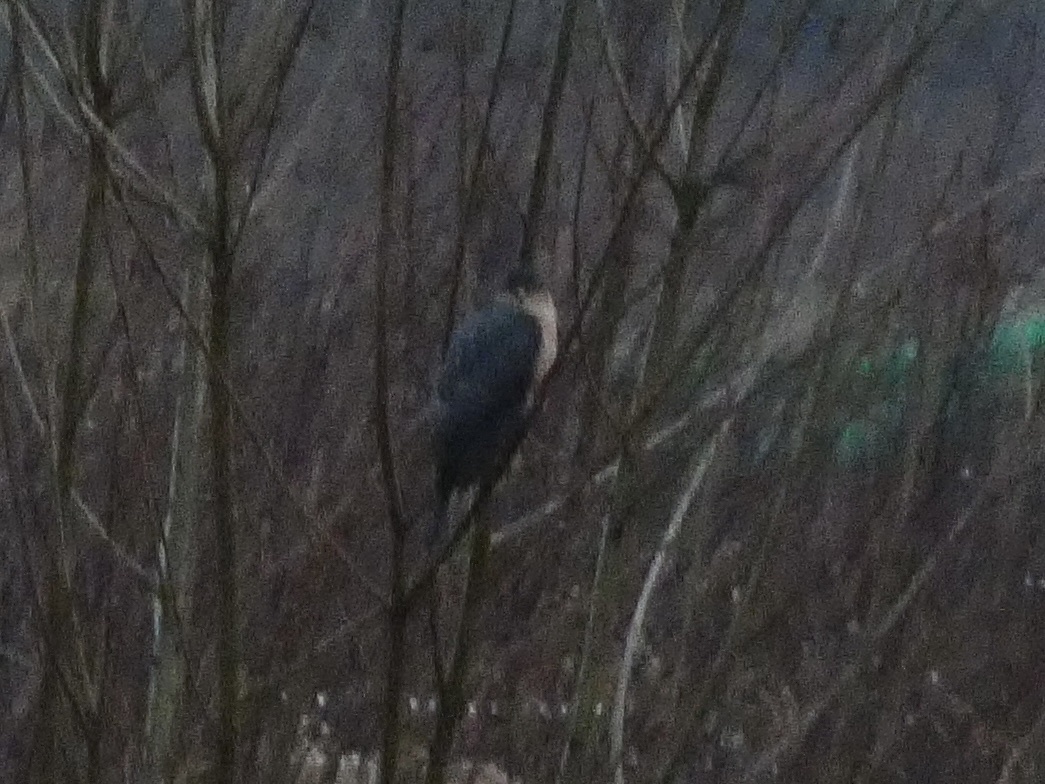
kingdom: Animalia
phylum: Chordata
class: Aves
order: Accipitriformes
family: Accipitridae
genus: Accipiter
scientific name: Accipiter nisus
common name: Eurasian sparrowhawk
